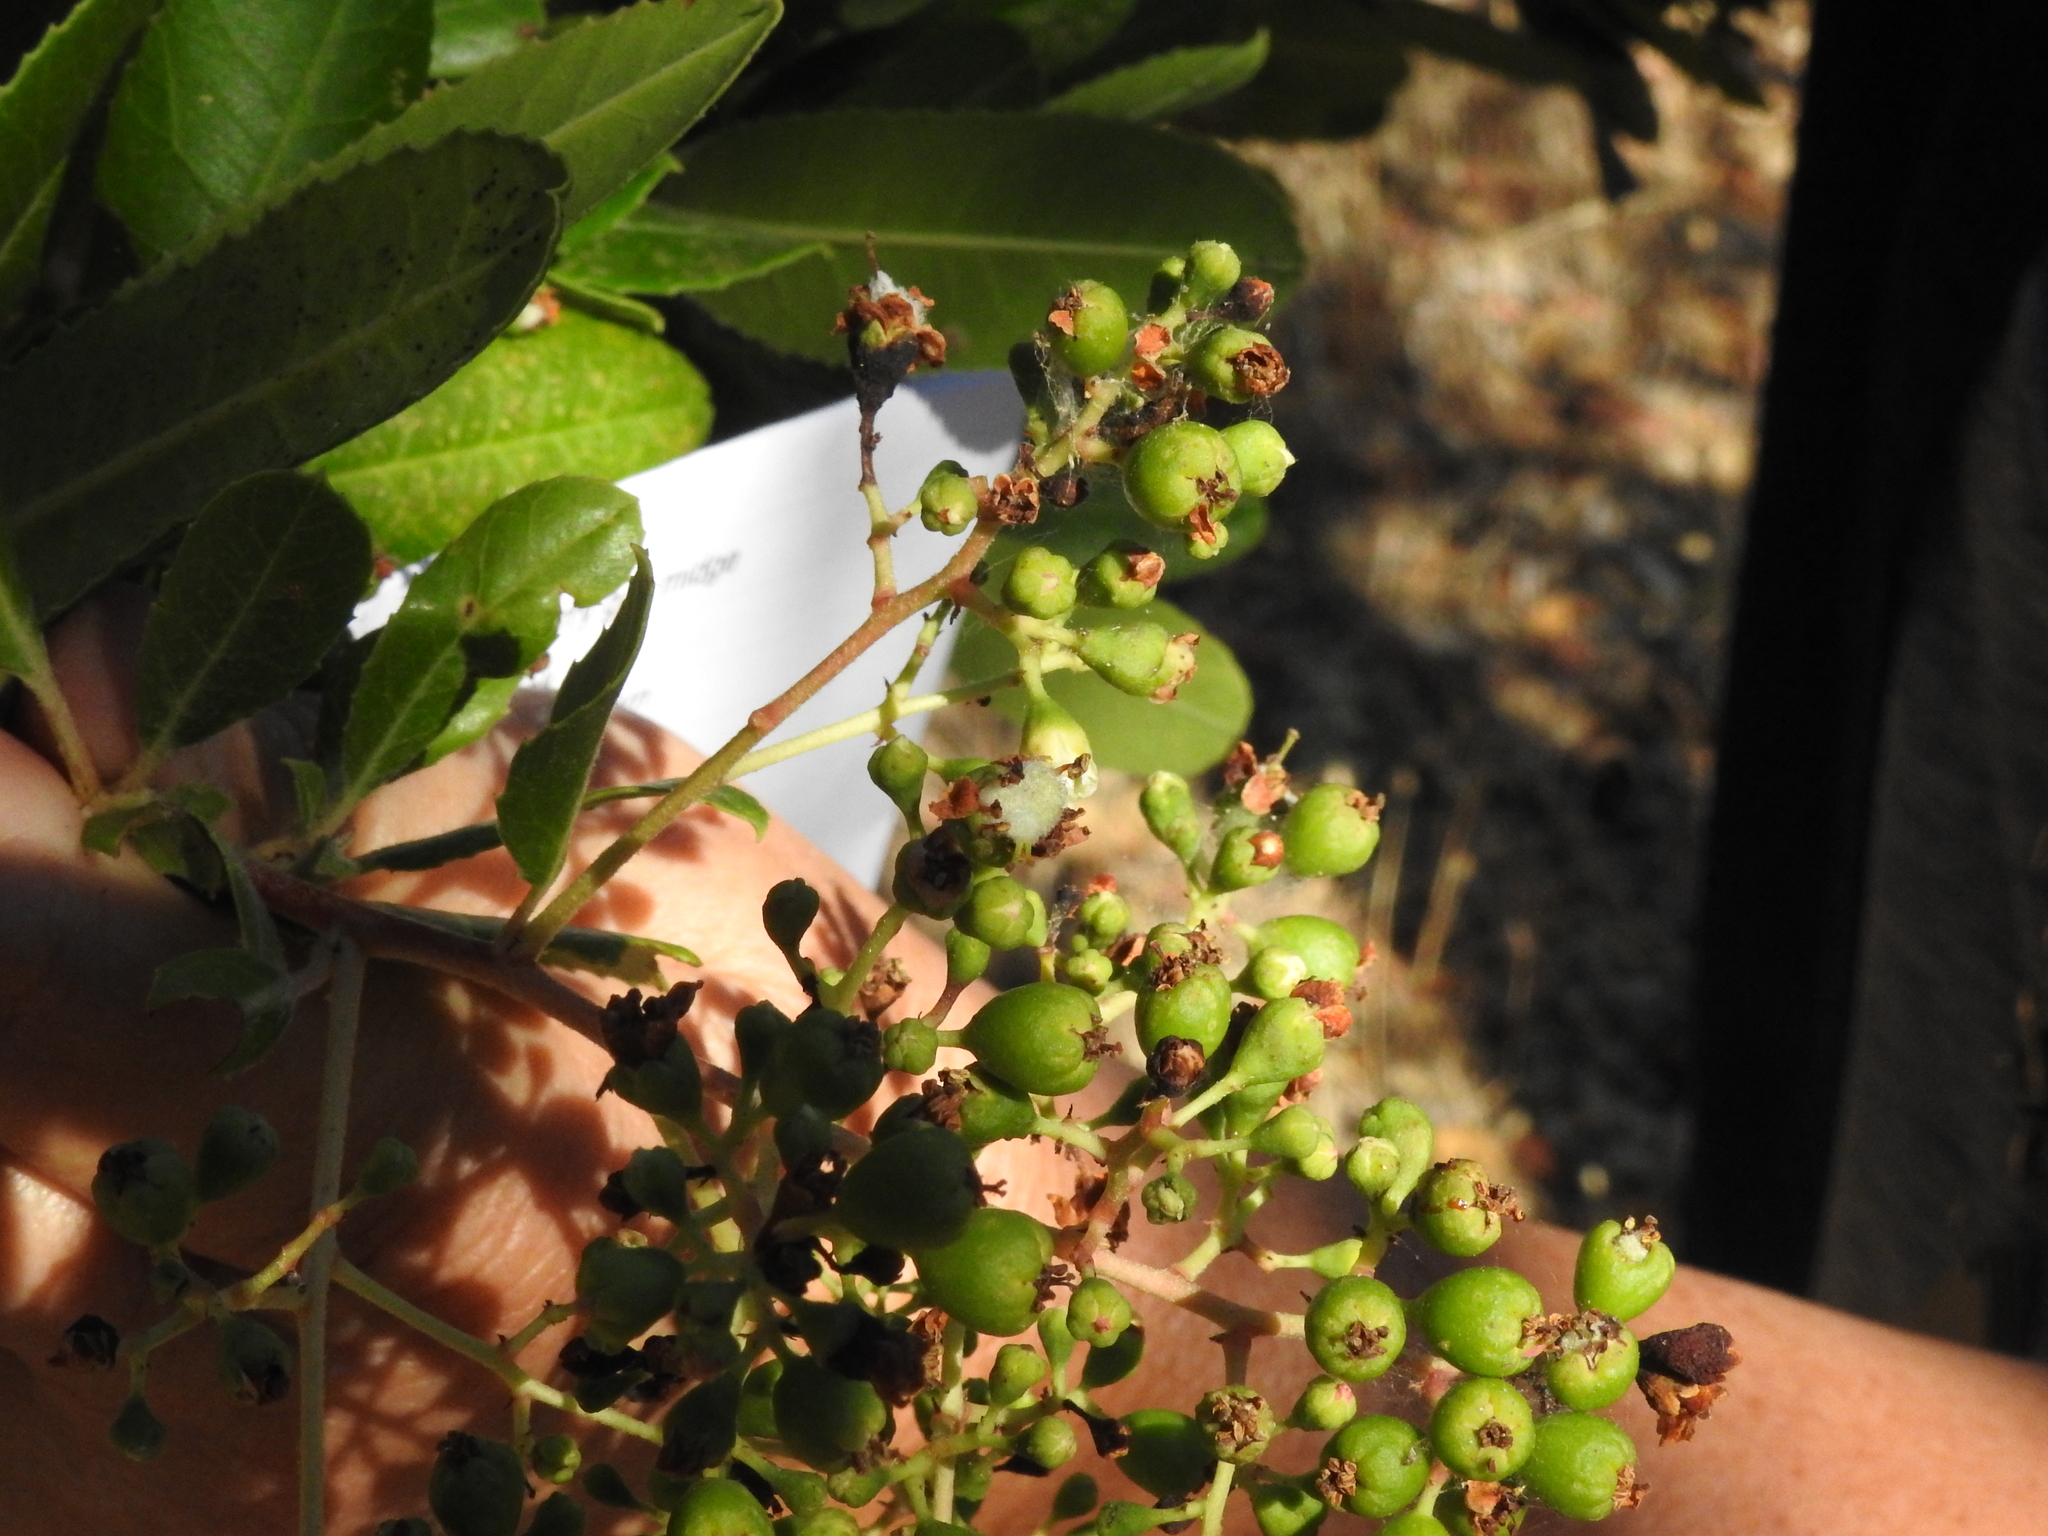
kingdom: Animalia
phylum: Arthropoda
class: Insecta
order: Diptera
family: Cecidomyiidae
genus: Asphondylia
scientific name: Asphondylia photiniae
